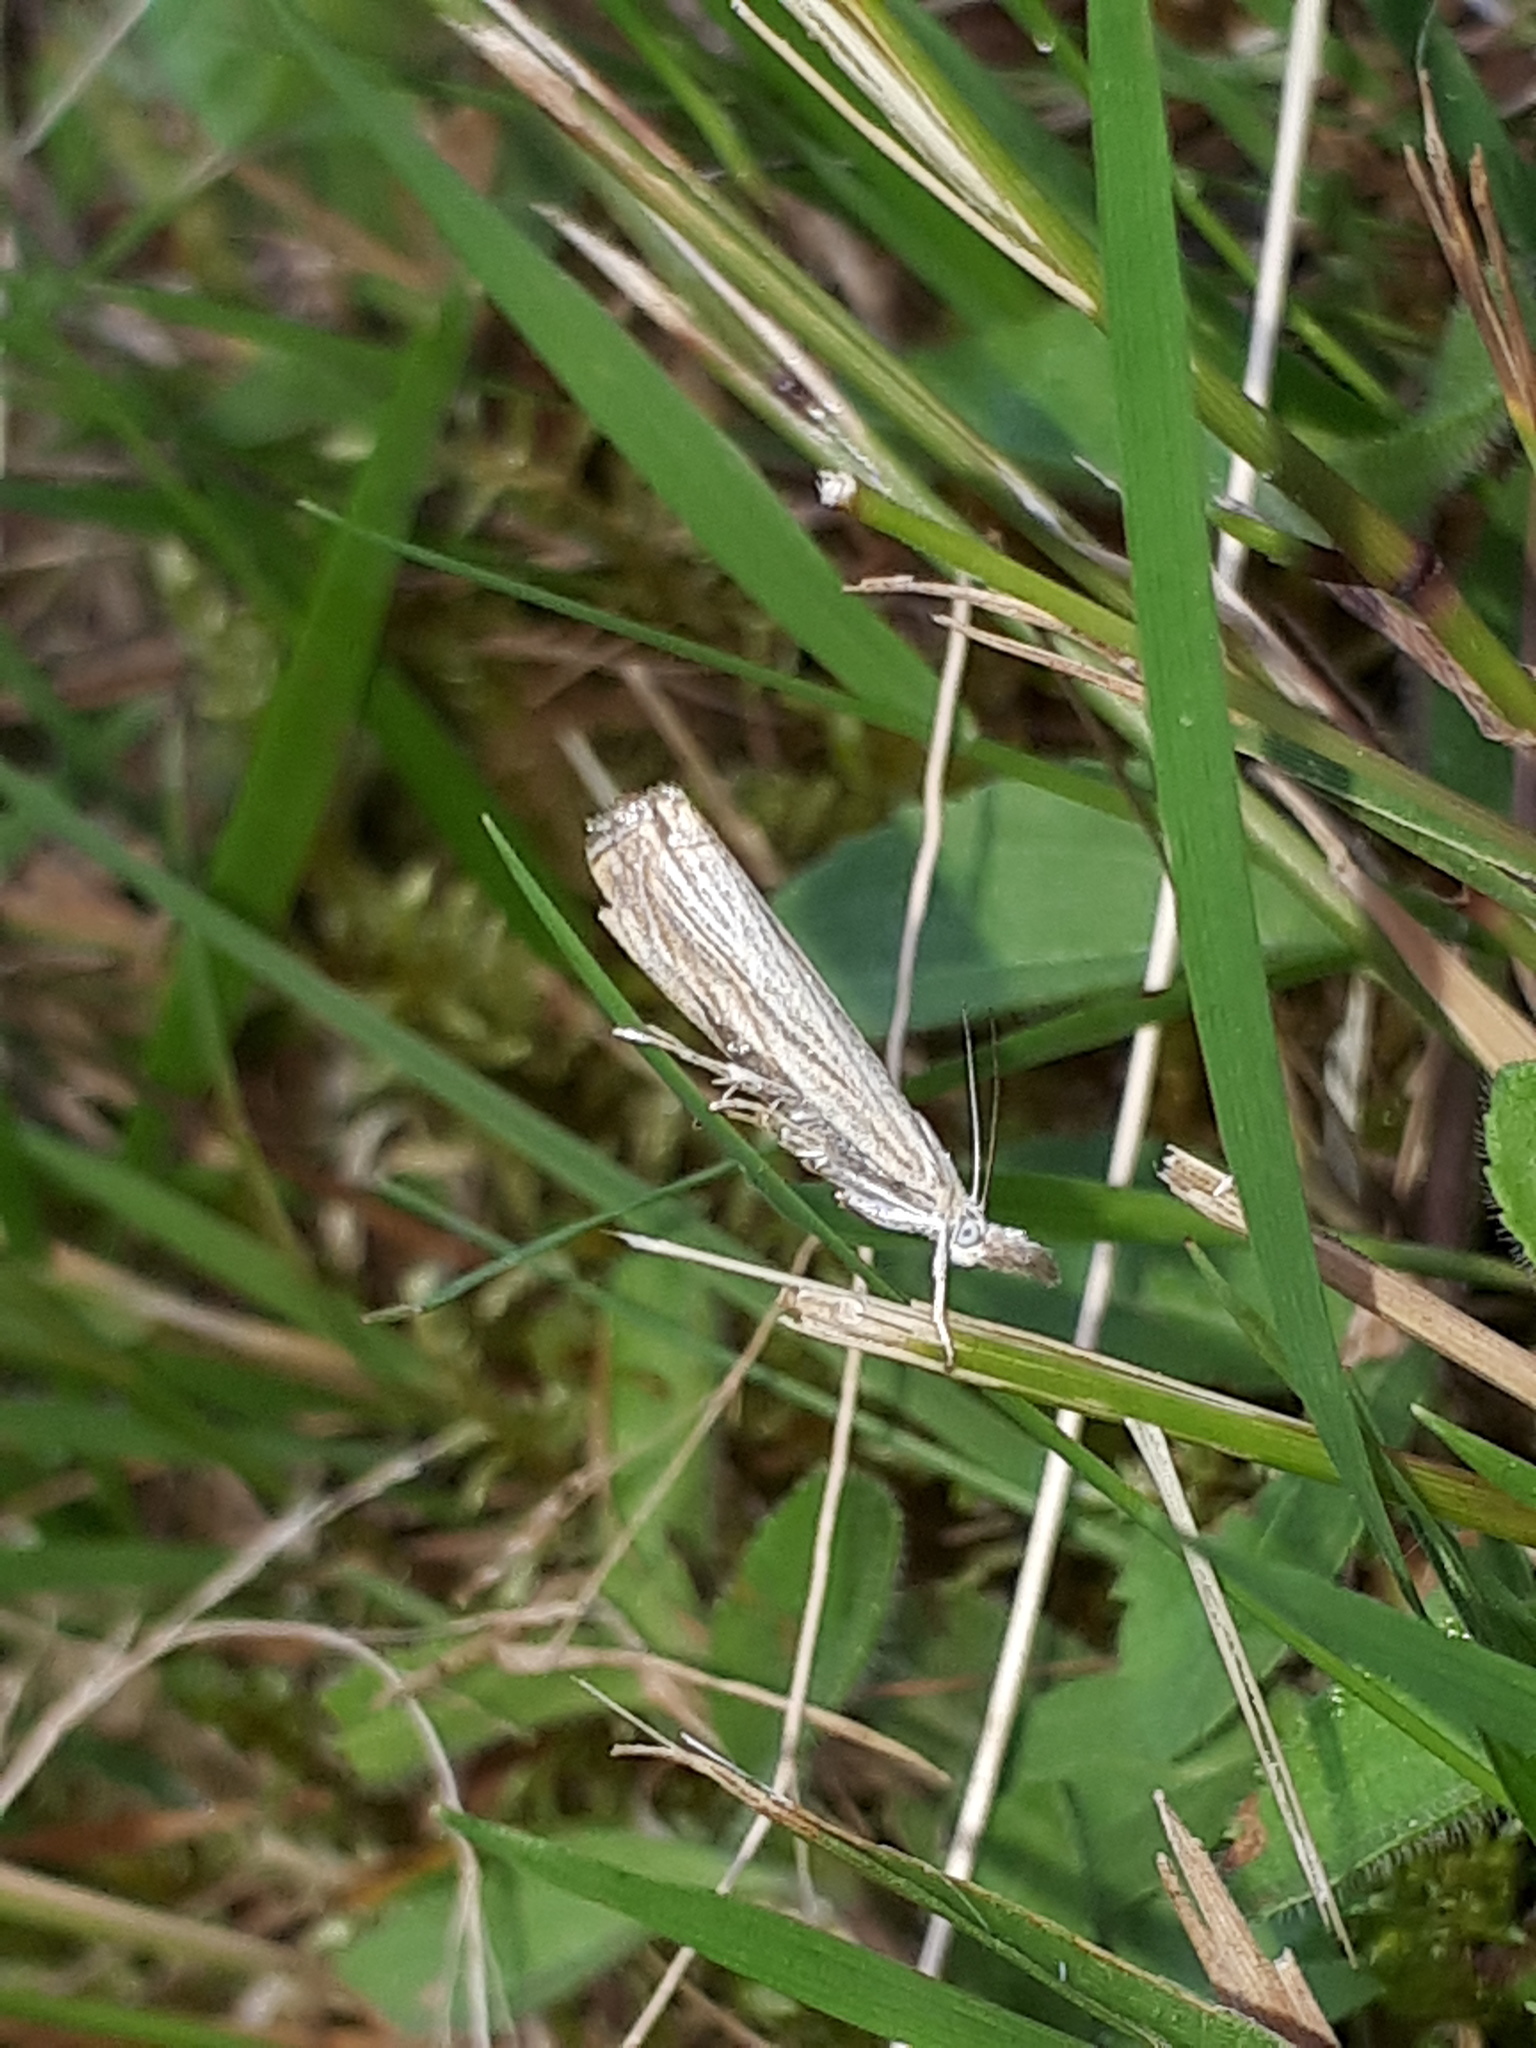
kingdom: Animalia
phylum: Arthropoda
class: Insecta
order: Lepidoptera
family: Crambidae
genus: Chrysoteuchia
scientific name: Chrysoteuchia culmella
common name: Garden grass-veneer
